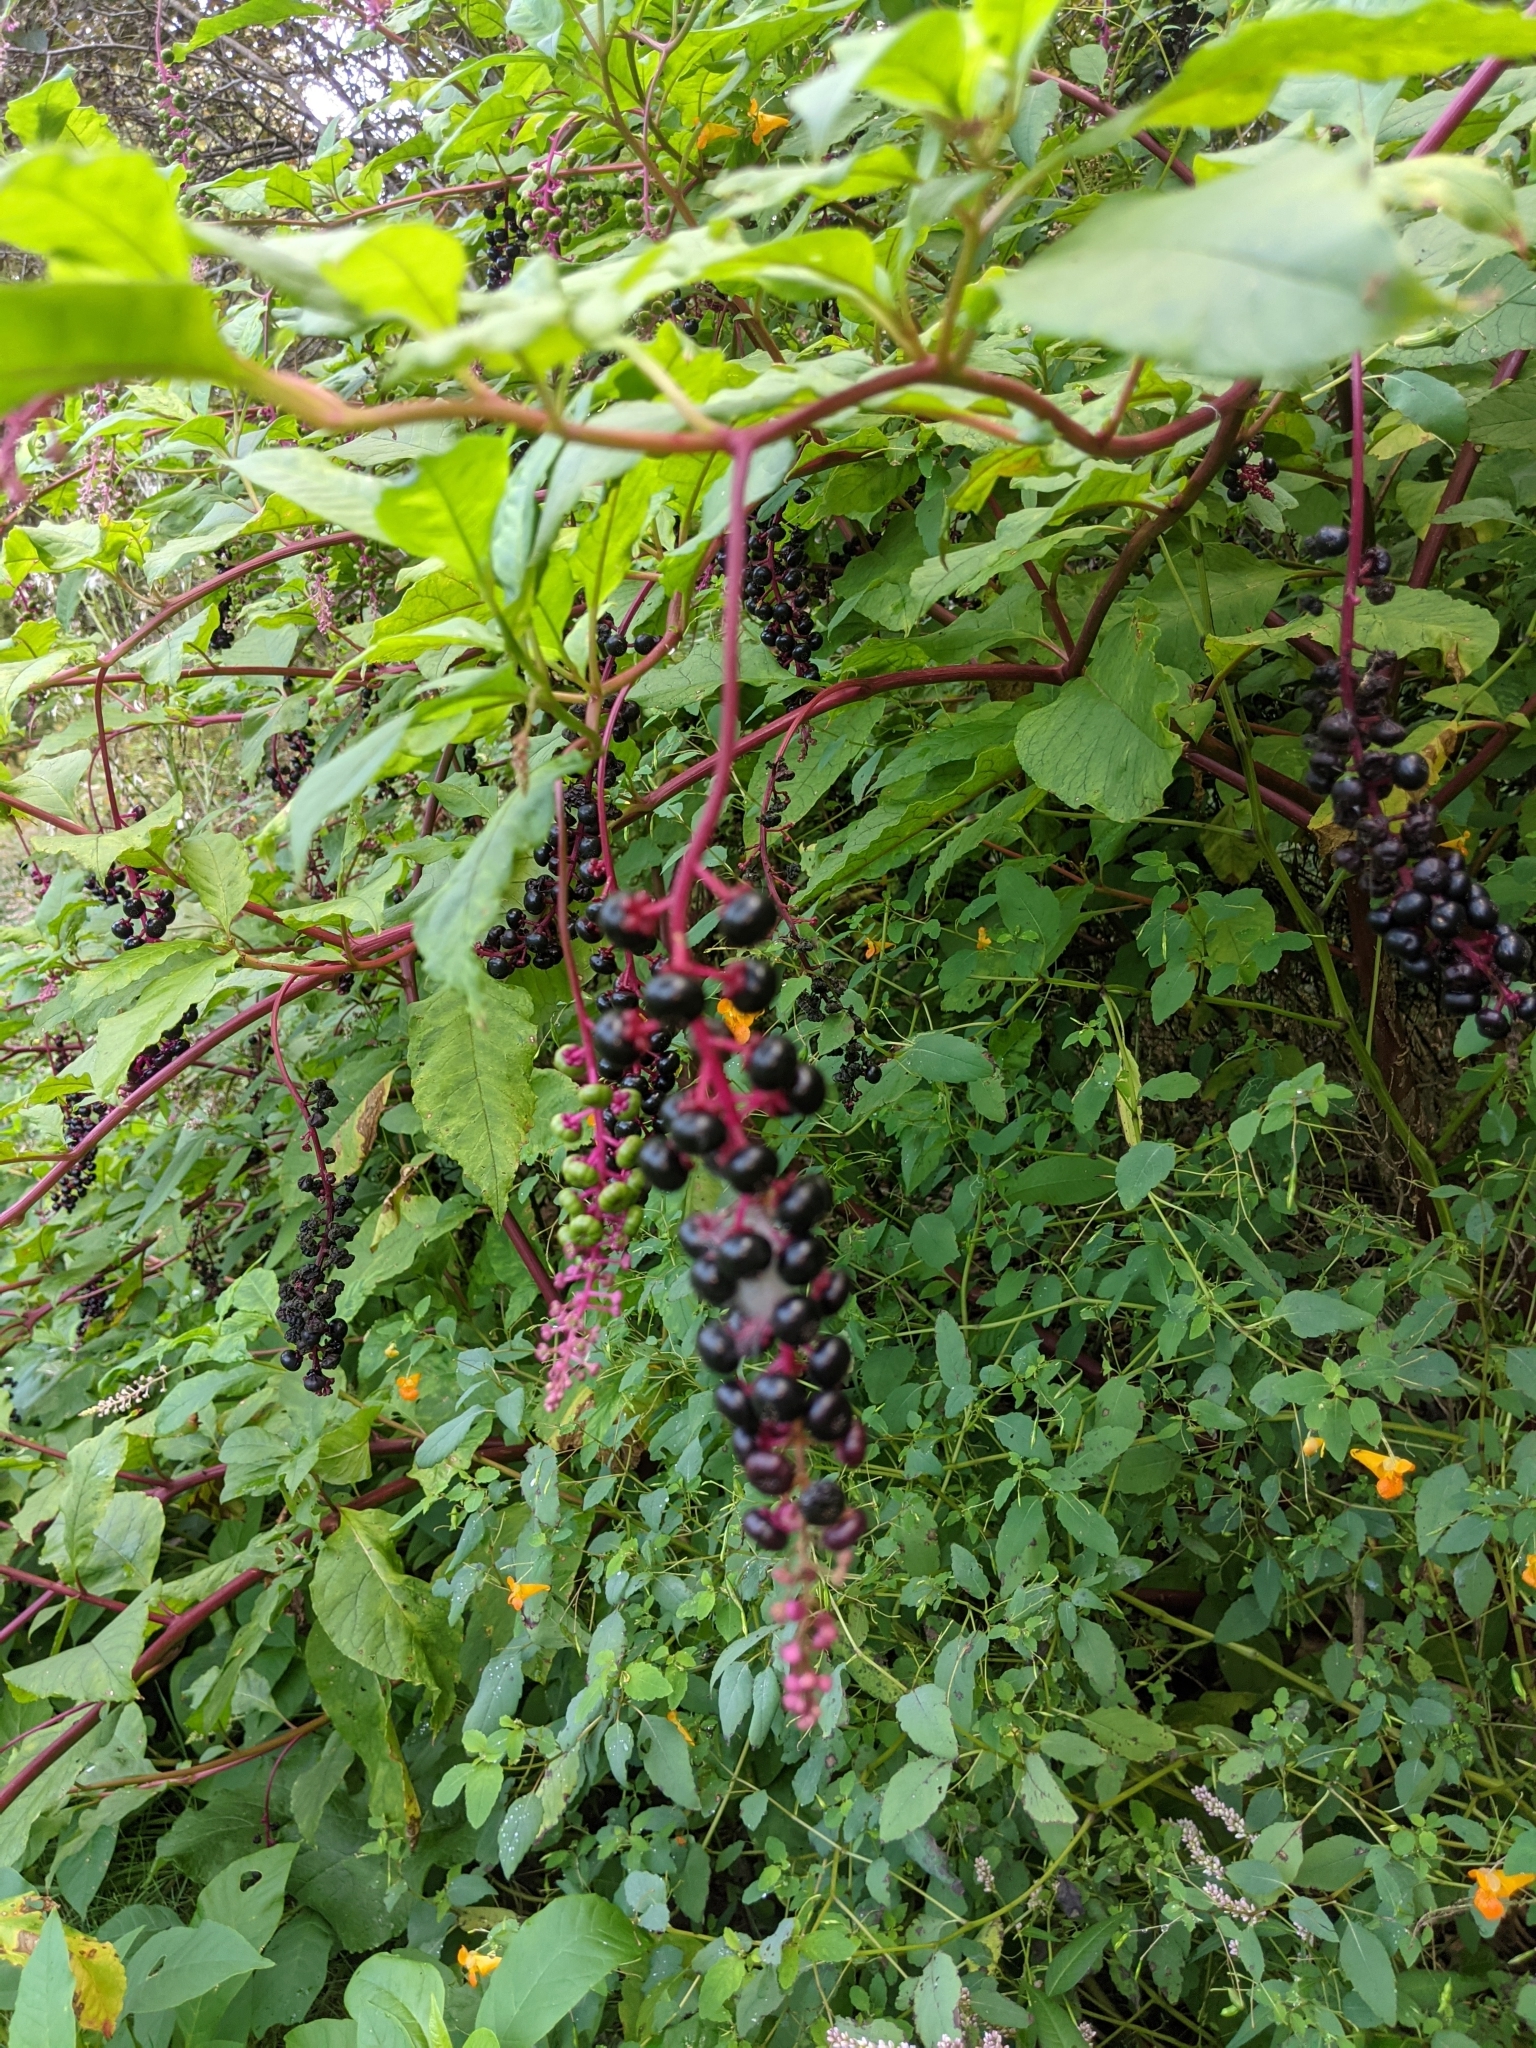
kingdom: Plantae
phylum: Tracheophyta
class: Magnoliopsida
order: Caryophyllales
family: Phytolaccaceae
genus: Phytolacca
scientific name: Phytolacca americana
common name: American pokeweed
